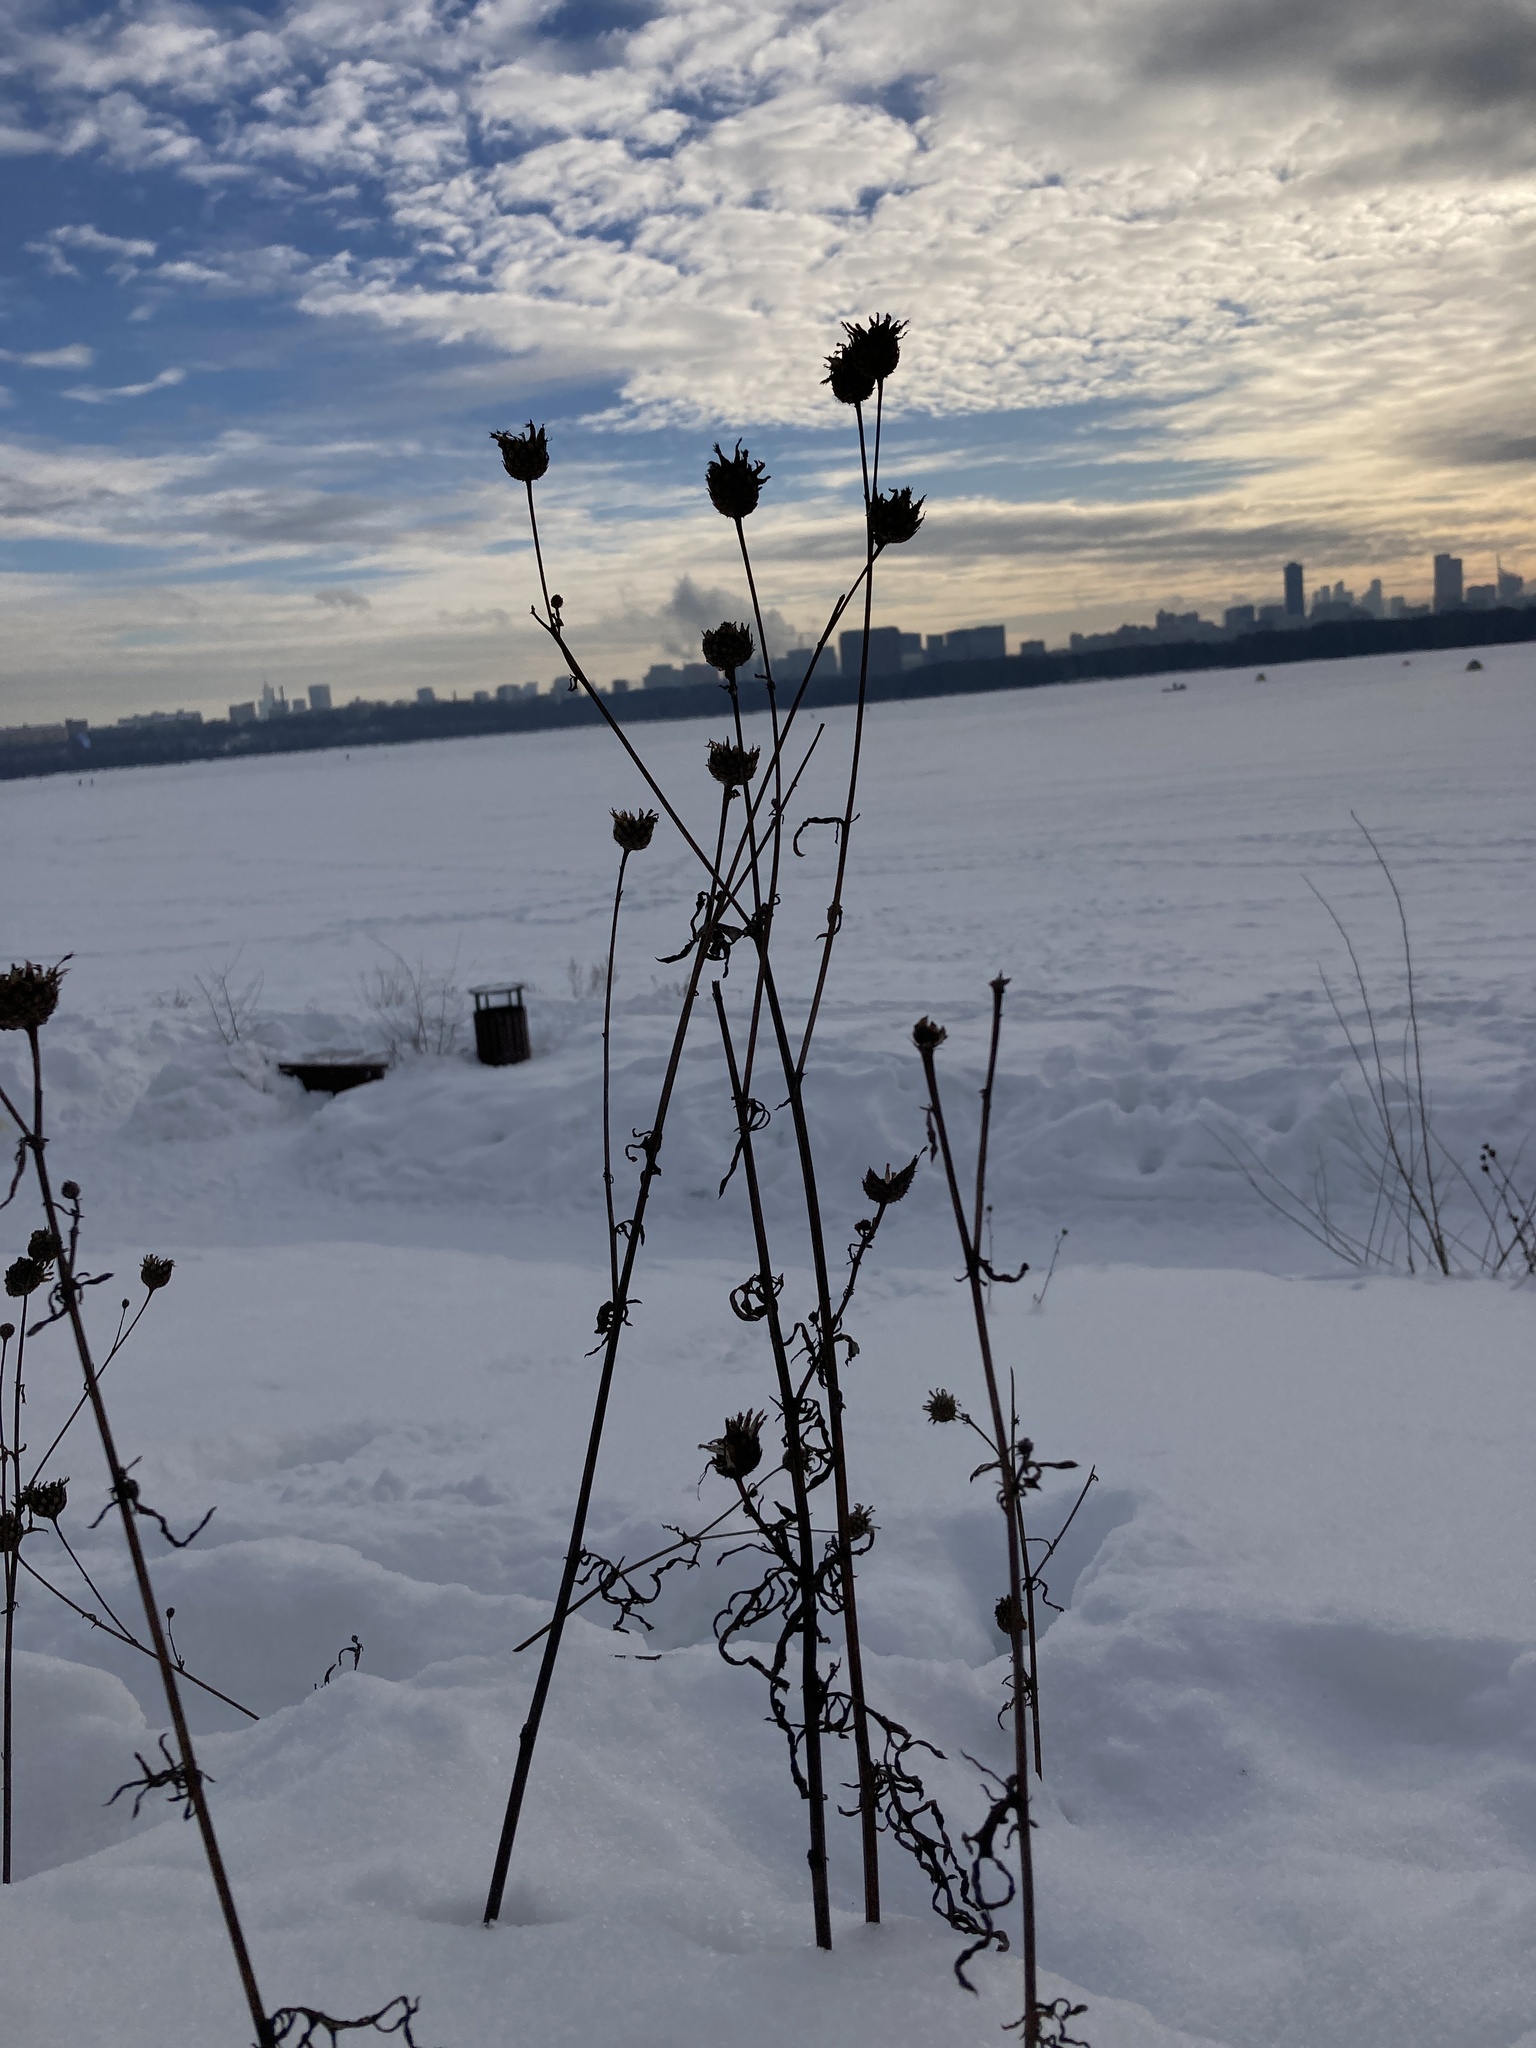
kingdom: Plantae
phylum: Tracheophyta
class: Magnoliopsida
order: Asterales
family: Asteraceae
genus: Centaurea
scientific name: Centaurea scabiosa
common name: Greater knapweed
